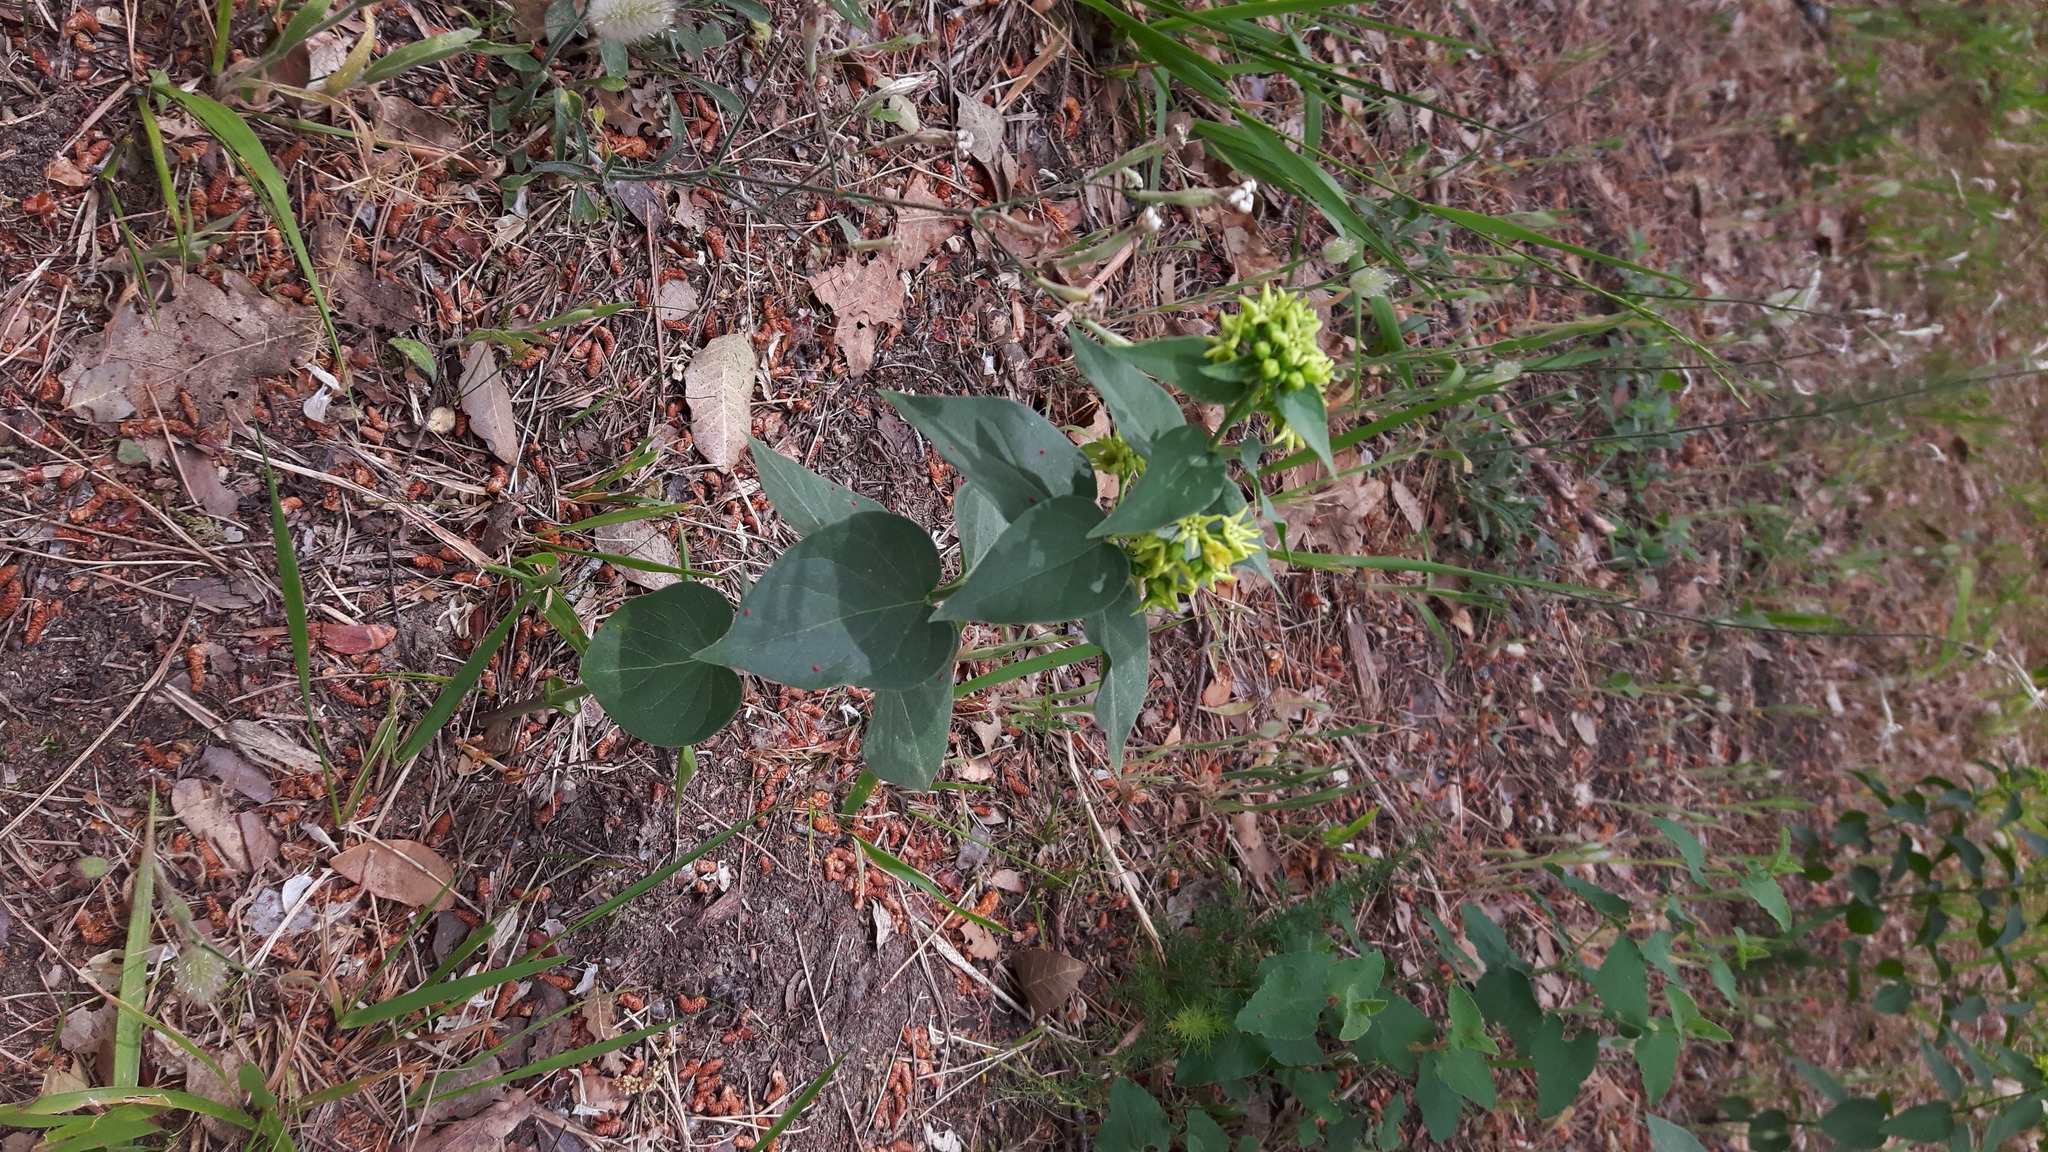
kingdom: Plantae
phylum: Tracheophyta
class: Magnoliopsida
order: Gentianales
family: Apocynaceae
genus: Vincetoxicum
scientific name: Vincetoxicum hirundinaria
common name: White swallowwort
